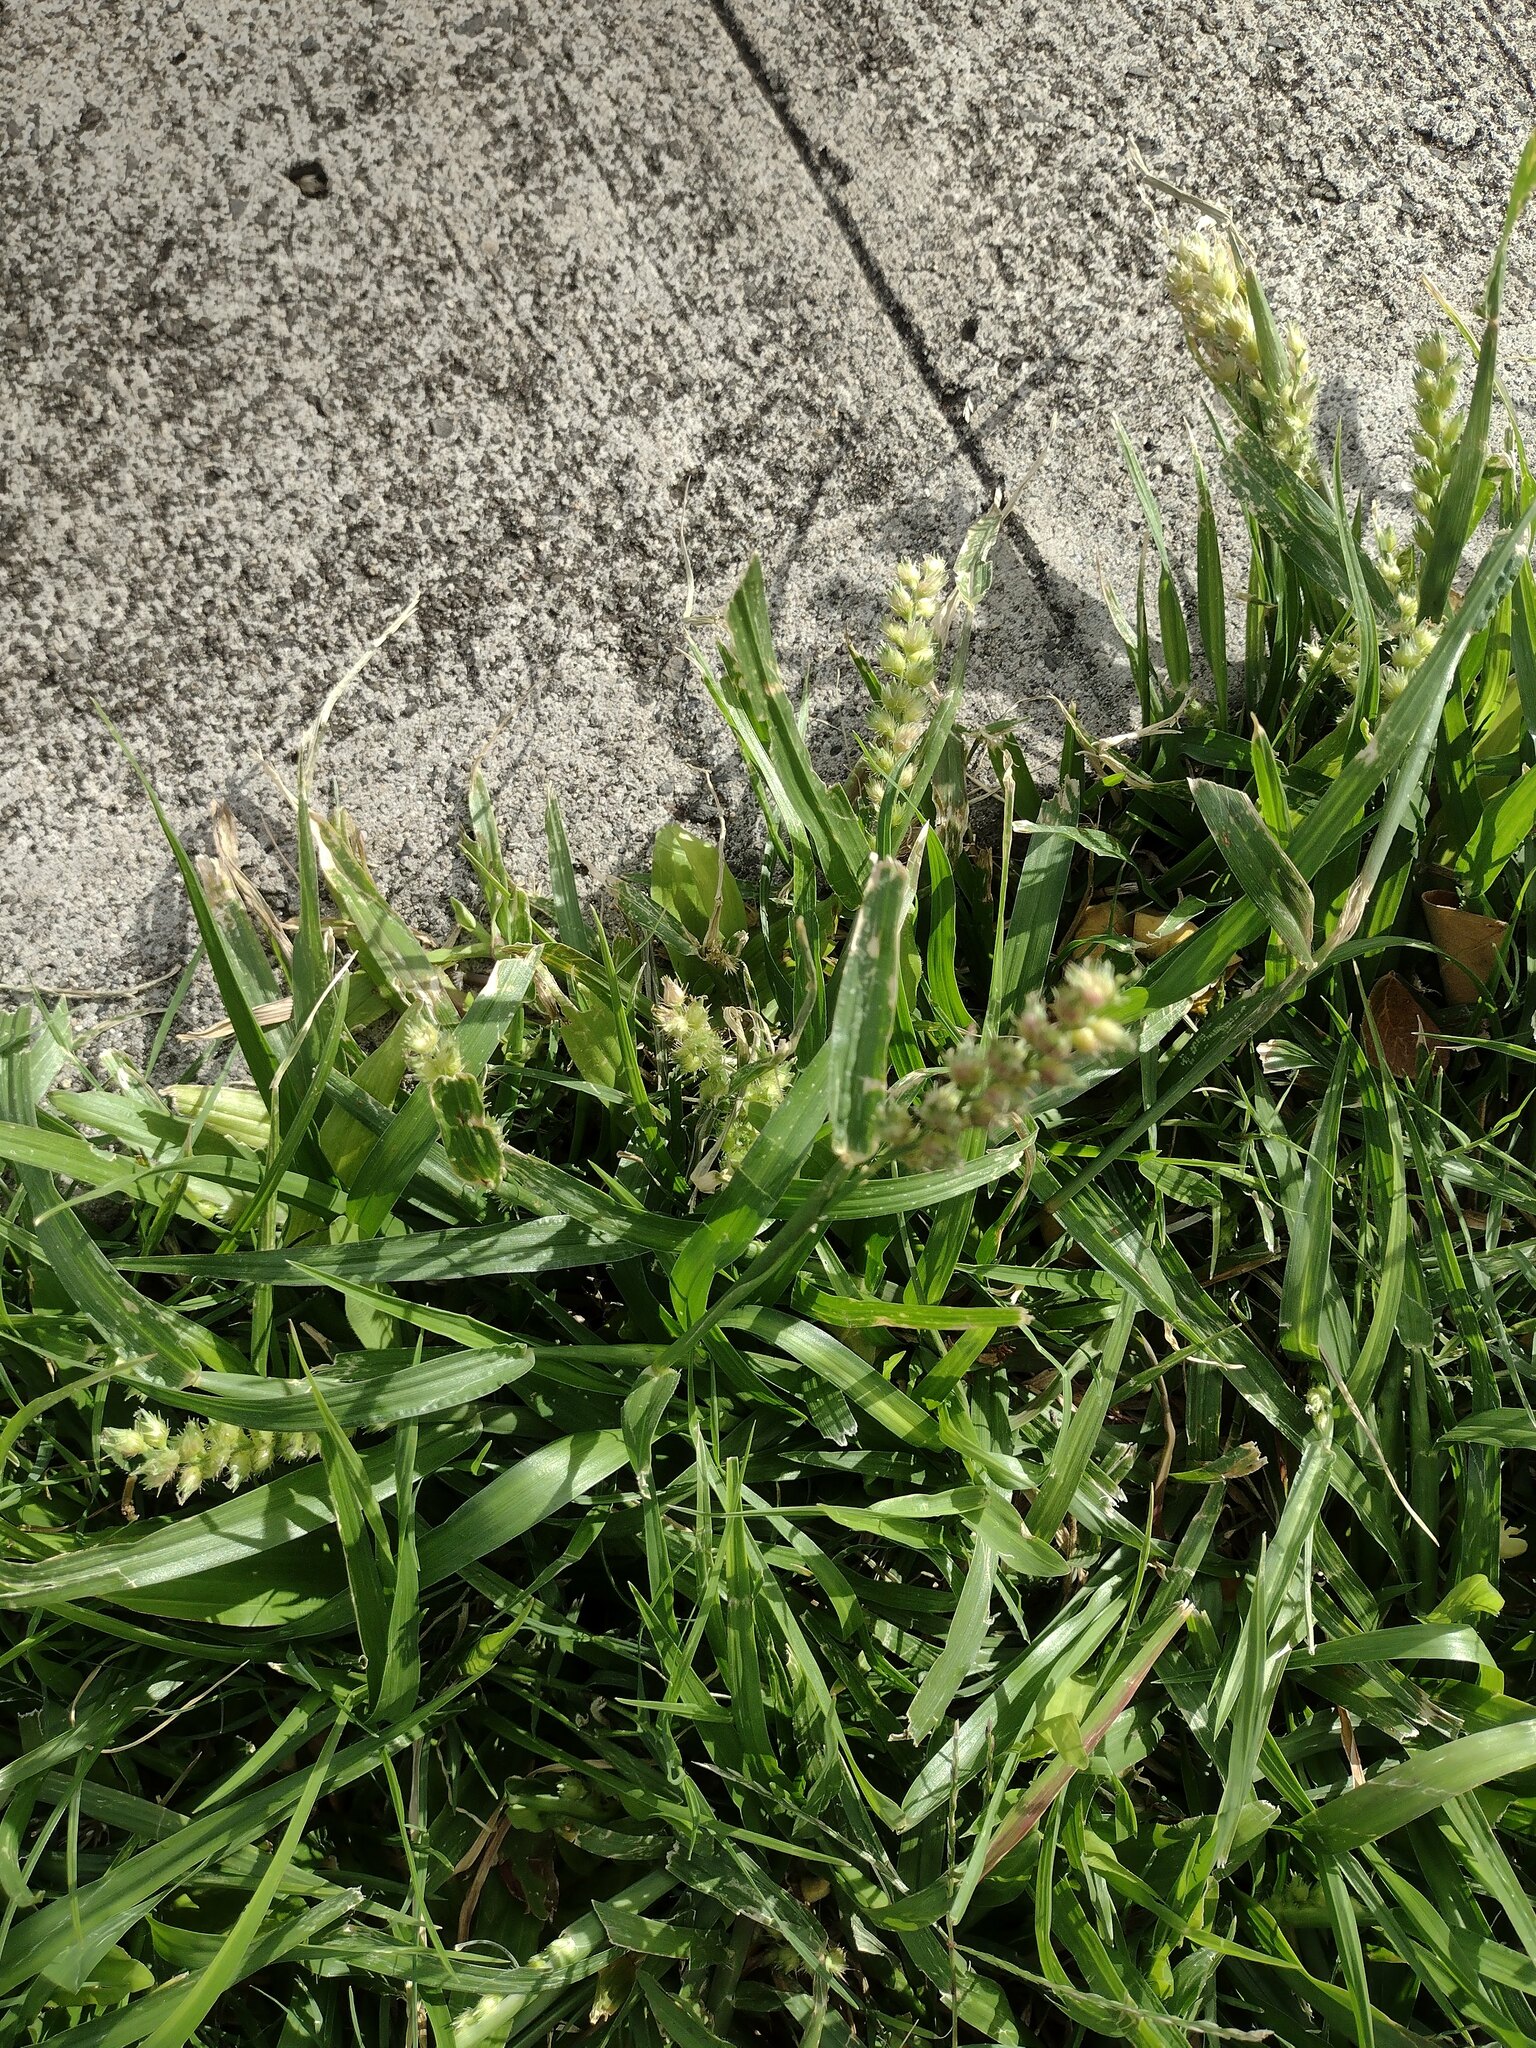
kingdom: Plantae
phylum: Tracheophyta
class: Liliopsida
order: Poales
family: Poaceae
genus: Cenchrus
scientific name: Cenchrus echinatus
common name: Southern sandbur
